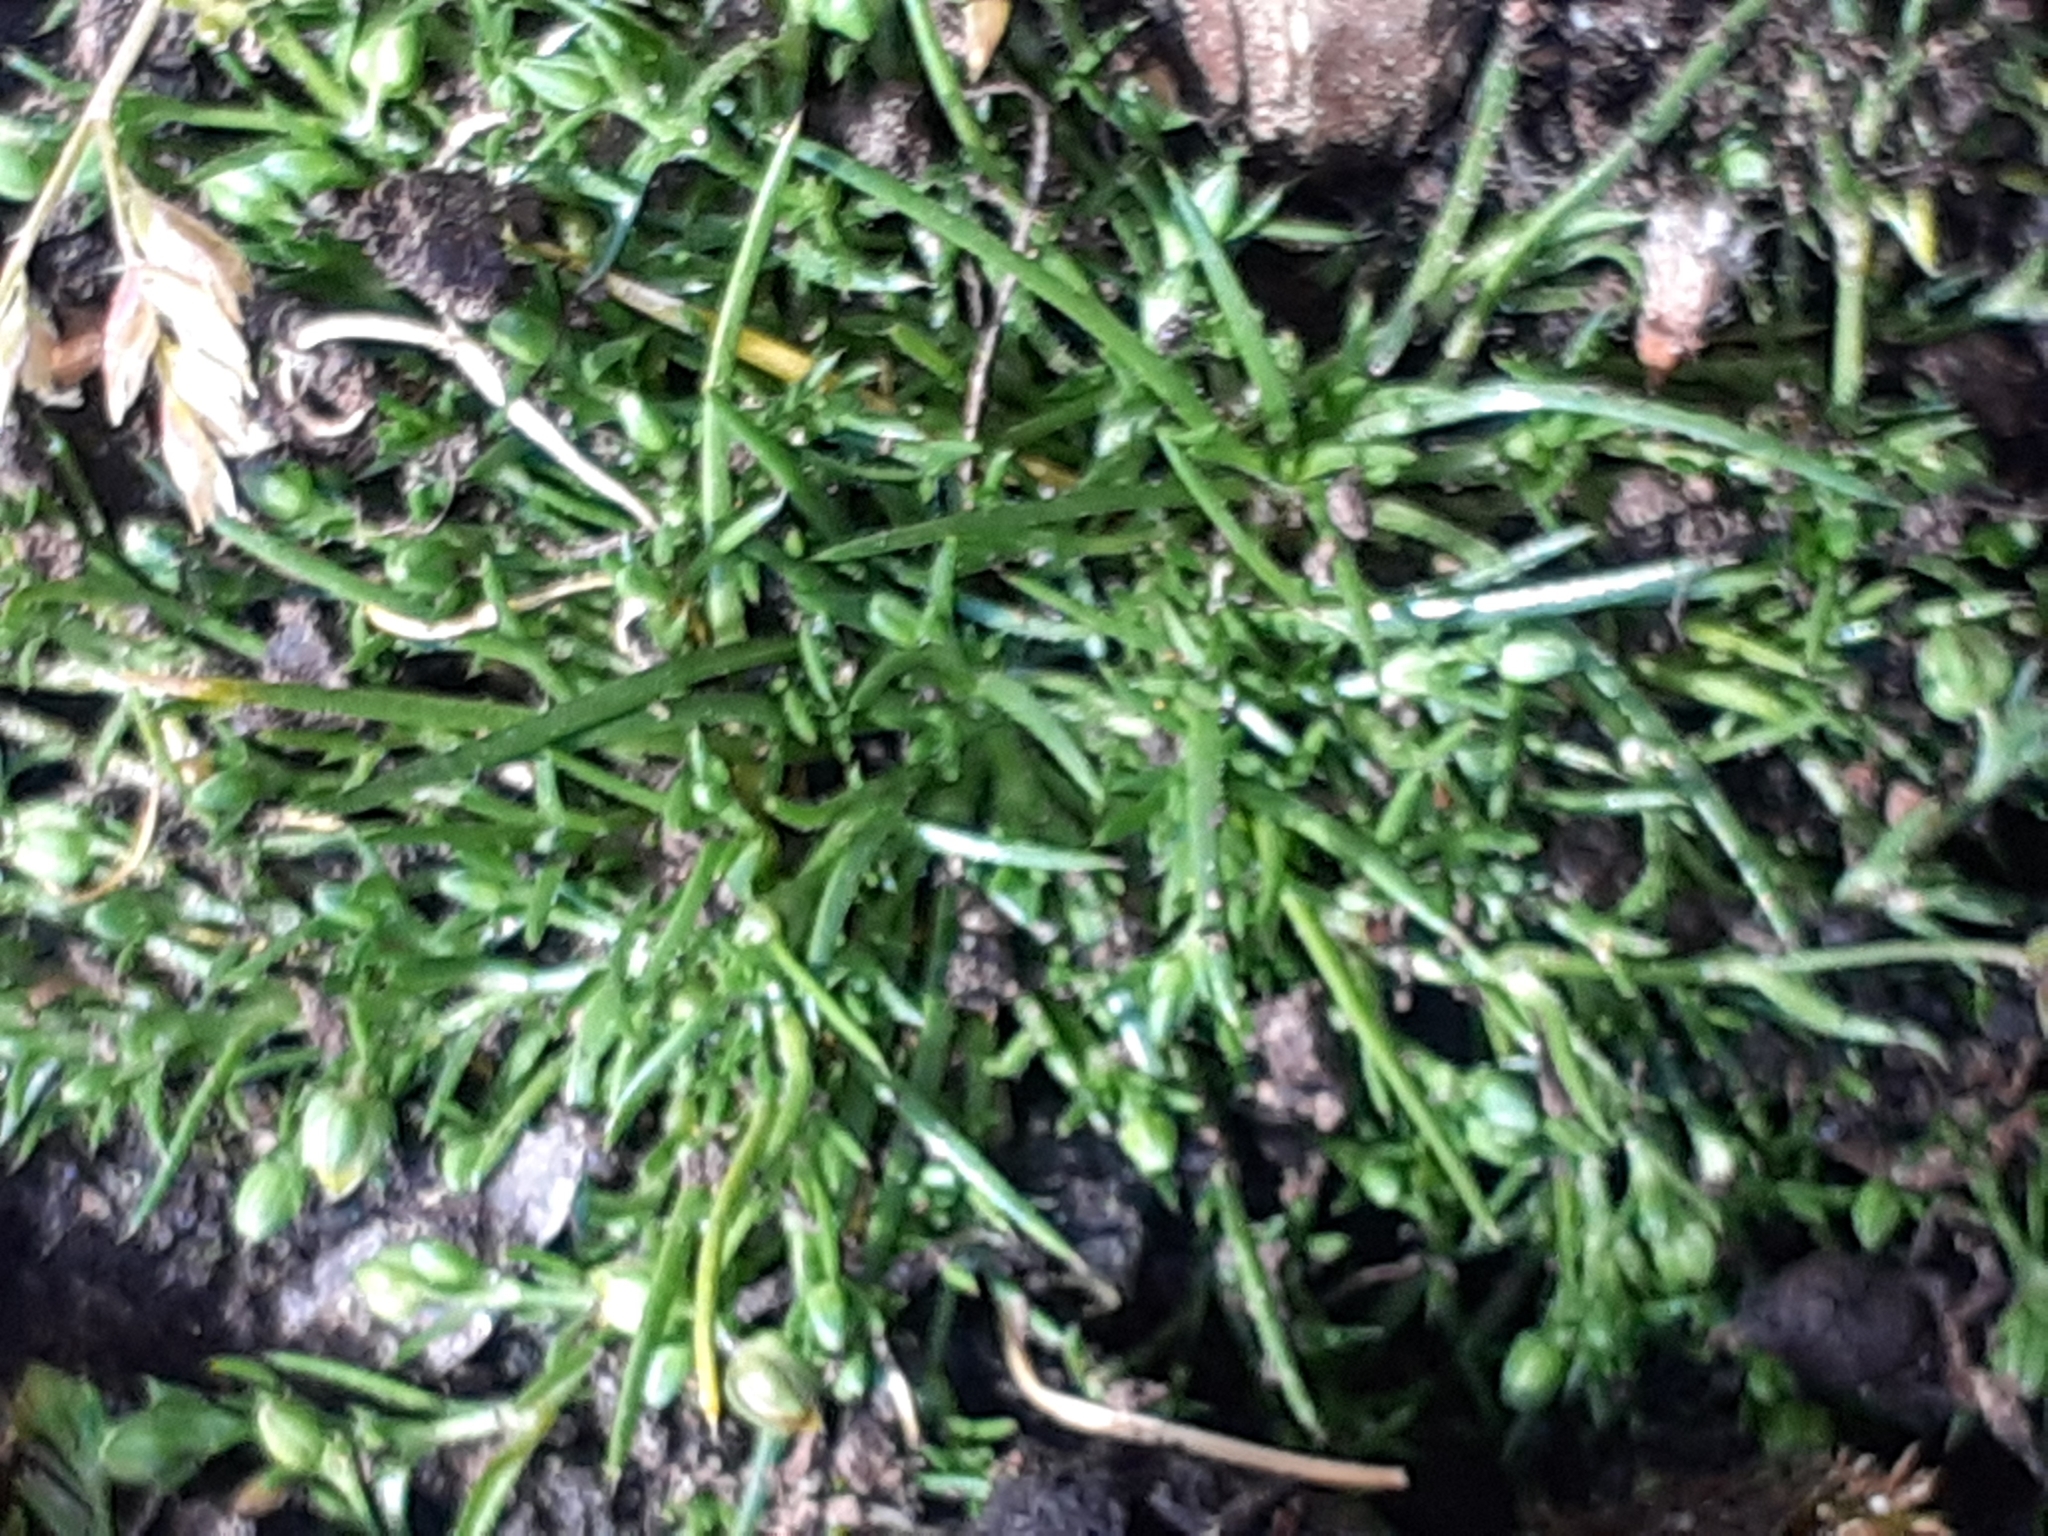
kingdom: Plantae
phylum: Tracheophyta
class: Magnoliopsida
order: Caryophyllales
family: Caryophyllaceae
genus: Sagina
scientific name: Sagina procumbens
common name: Procumbent pearlwort
